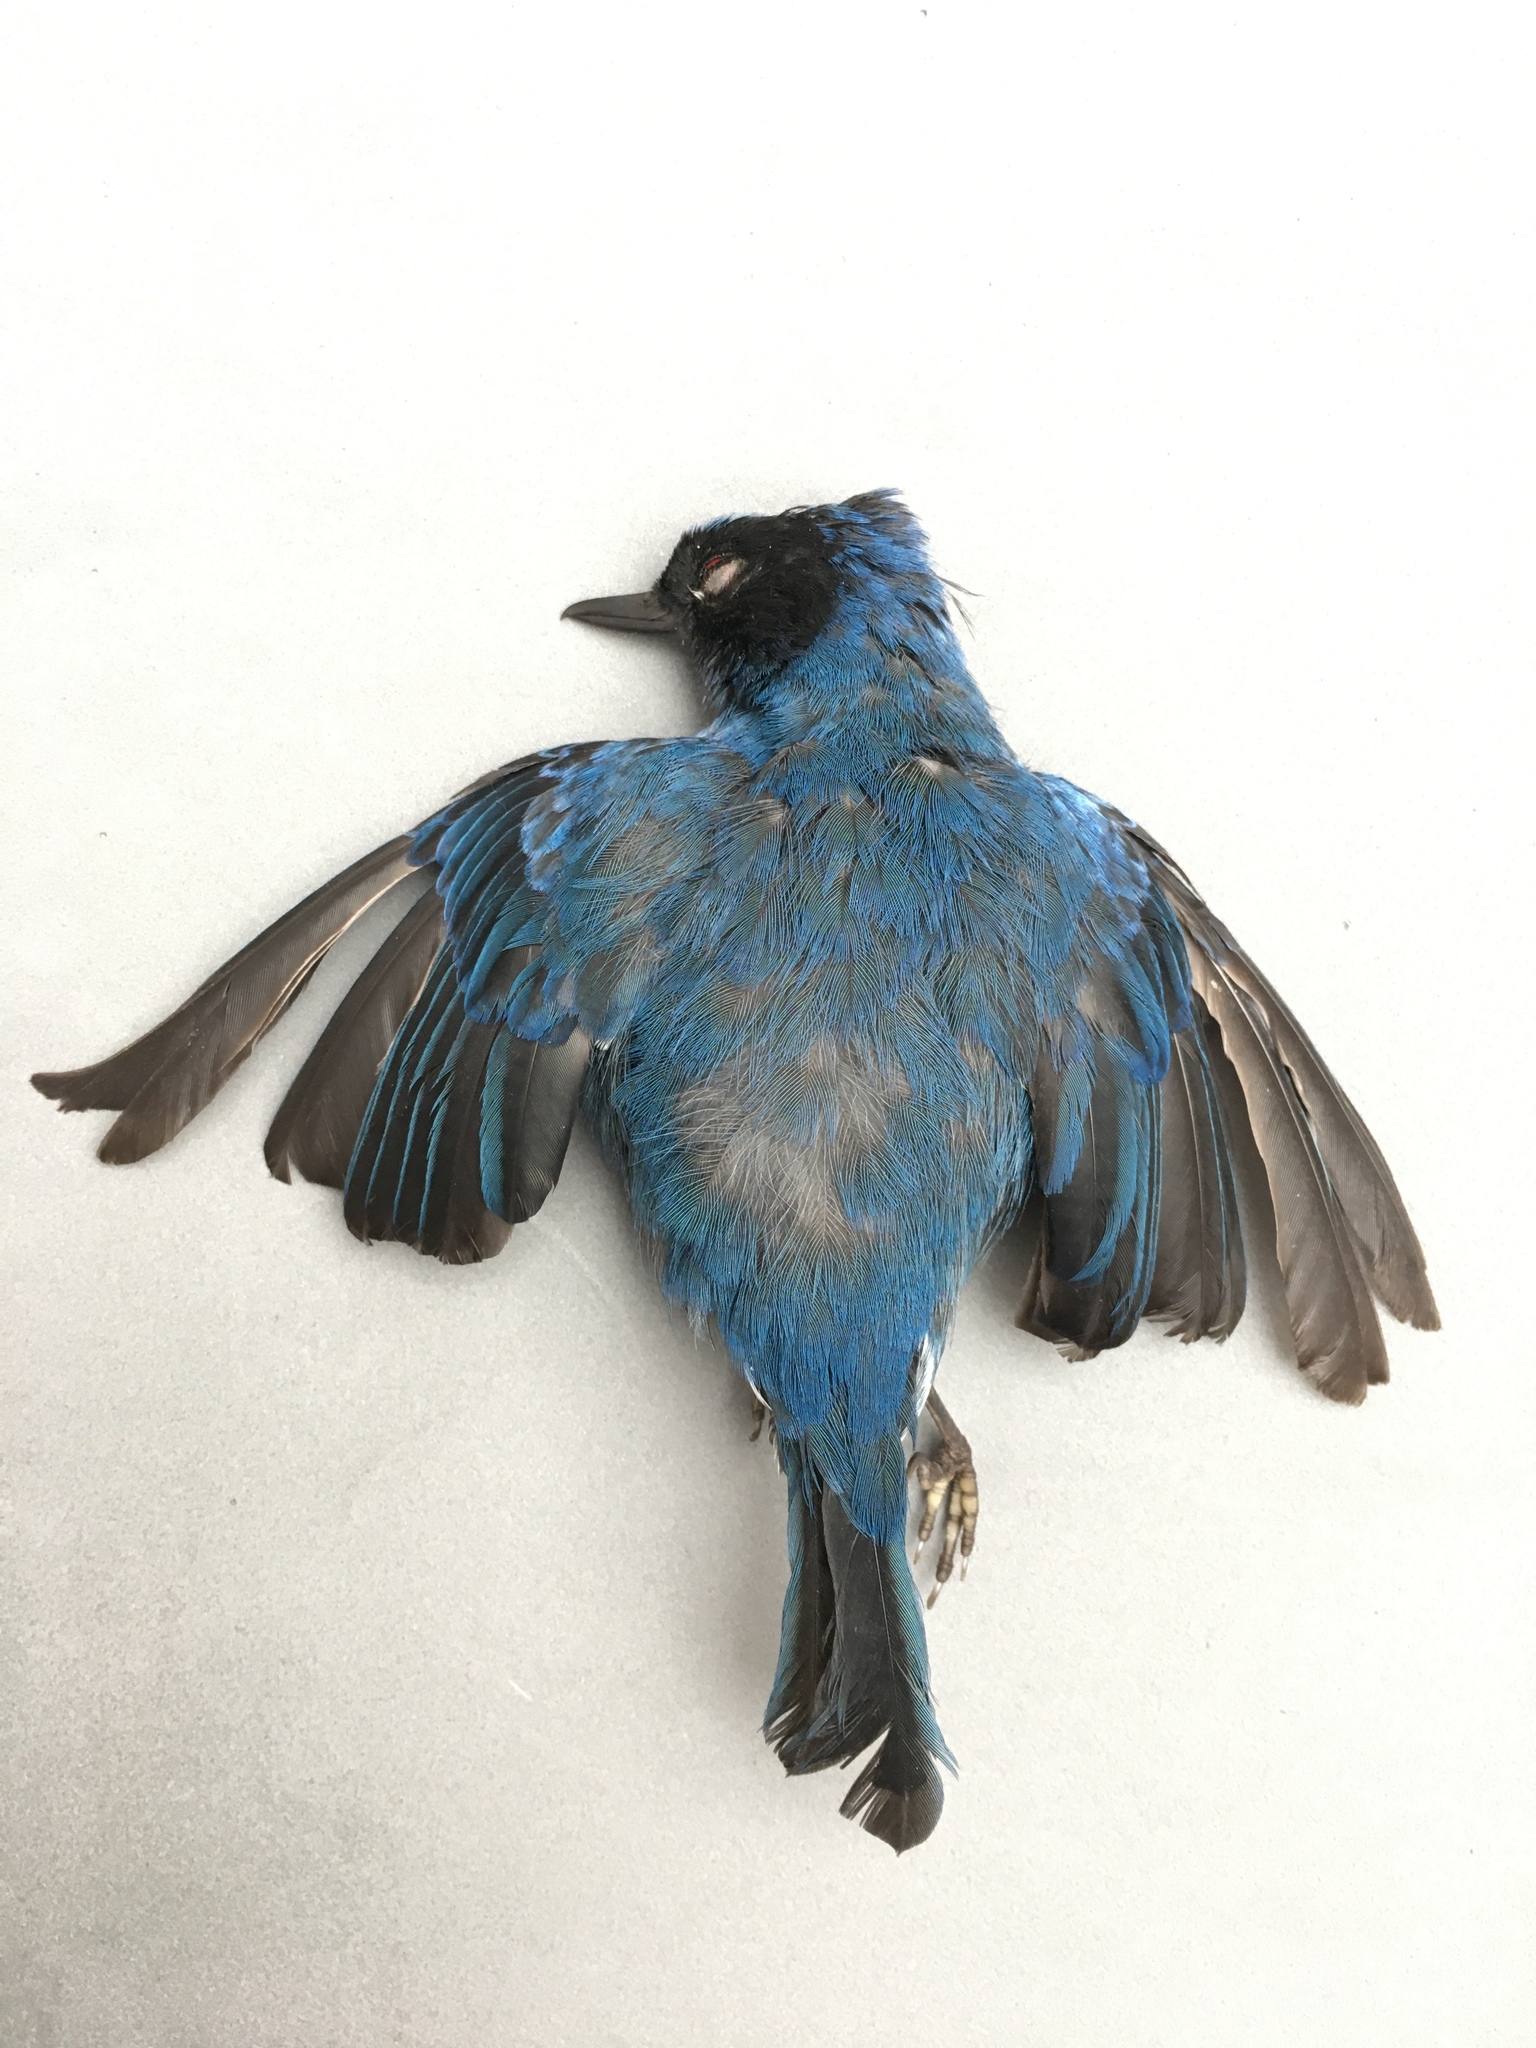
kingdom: Animalia
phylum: Chordata
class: Aves
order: Passeriformes
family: Thraupidae
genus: Diglossa
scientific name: Diglossa cyanea
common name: Masked flowerpiercer
